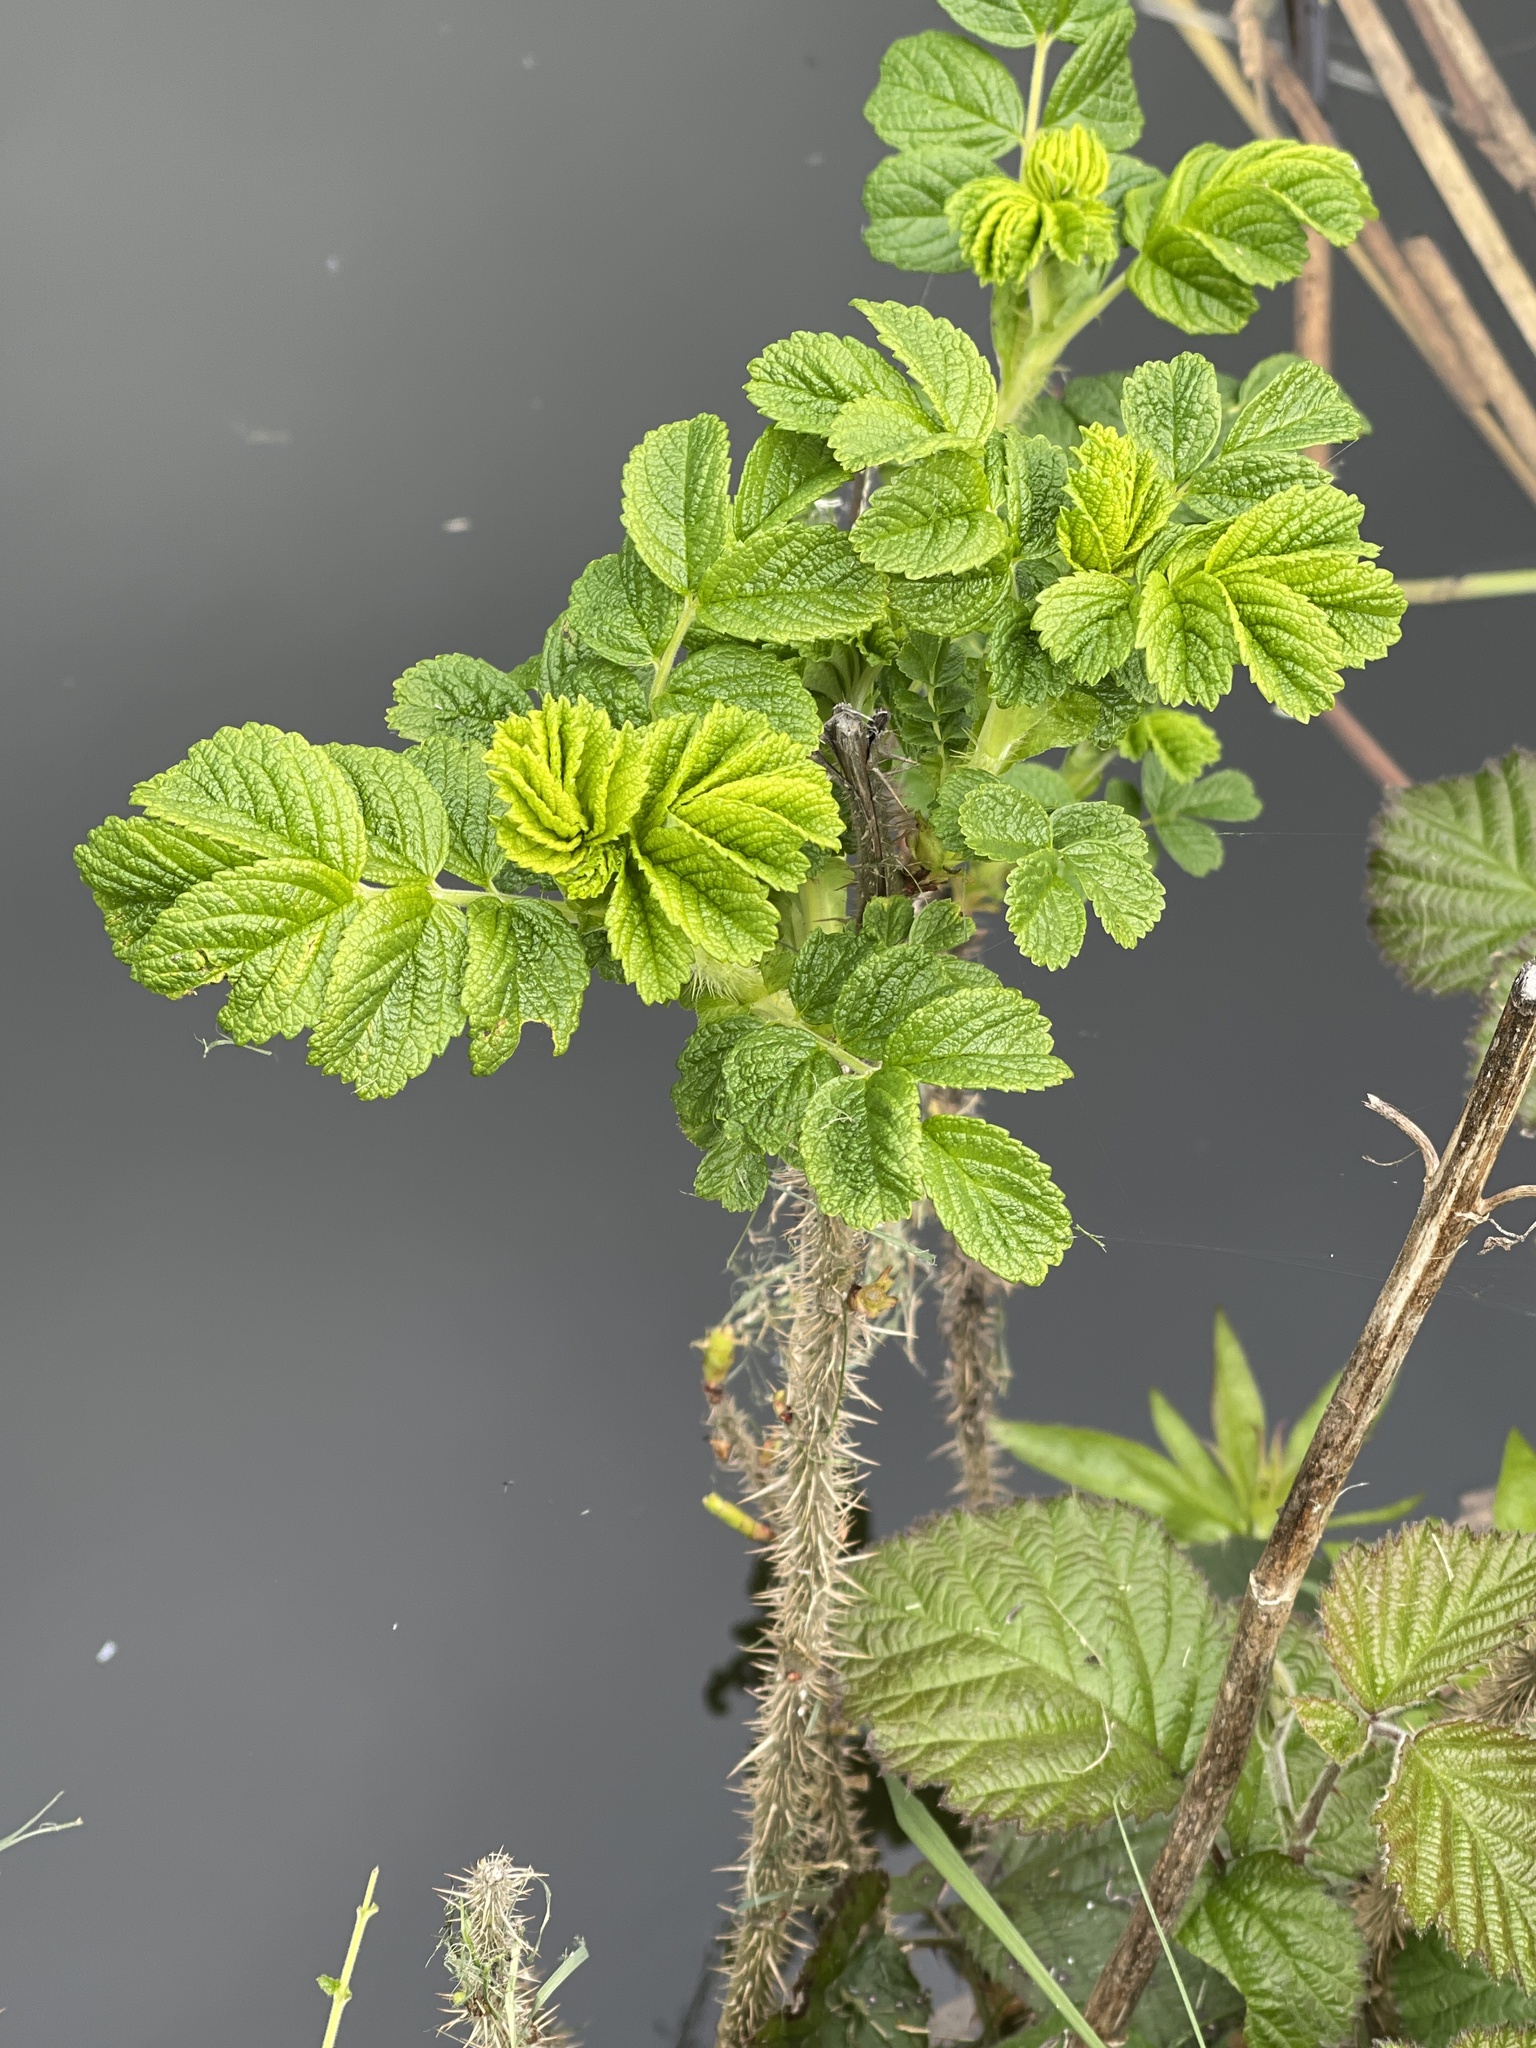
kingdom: Plantae
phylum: Tracheophyta
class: Magnoliopsida
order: Rosales
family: Rosaceae
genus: Rosa
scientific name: Rosa rugosa
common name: Japanese rose
